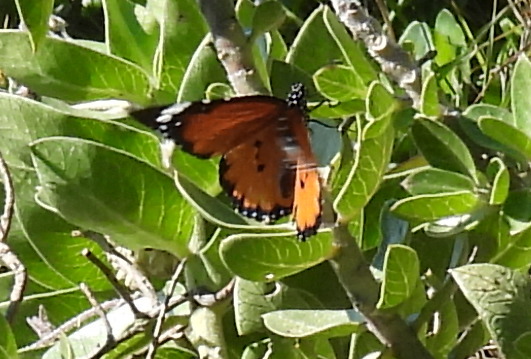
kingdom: Animalia
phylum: Arthropoda
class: Insecta
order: Lepidoptera
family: Nymphalidae
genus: Danaus
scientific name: Danaus chrysippus
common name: Plain tiger
